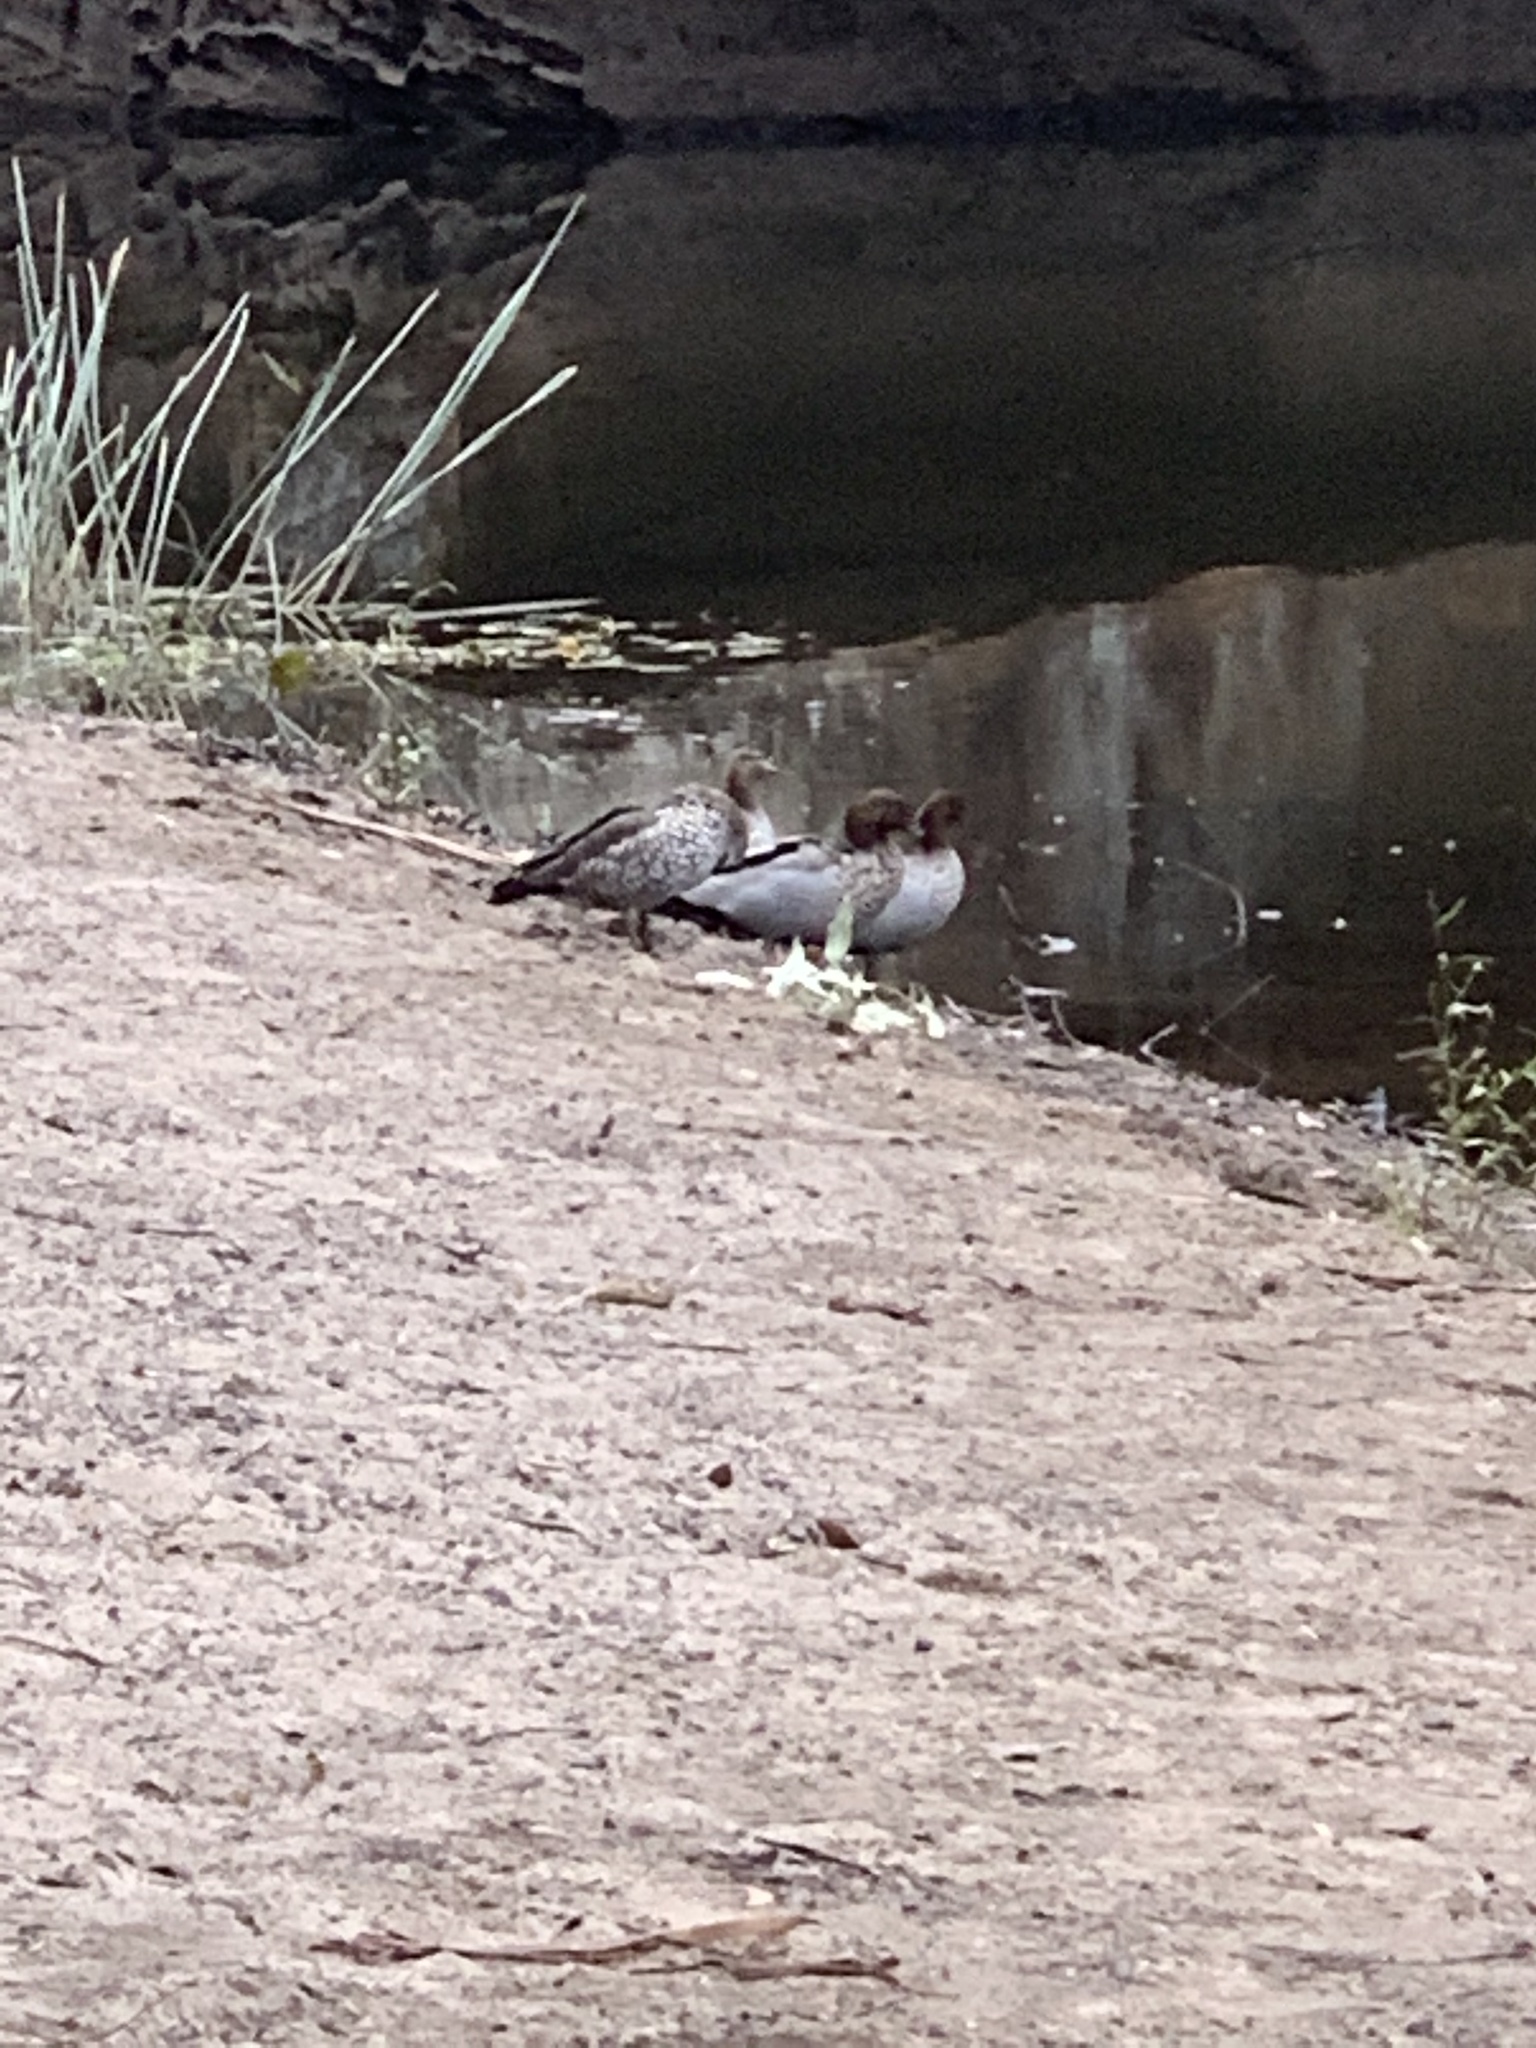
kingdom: Animalia
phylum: Chordata
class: Aves
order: Anseriformes
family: Anatidae
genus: Chenonetta
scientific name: Chenonetta jubata
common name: Maned duck
